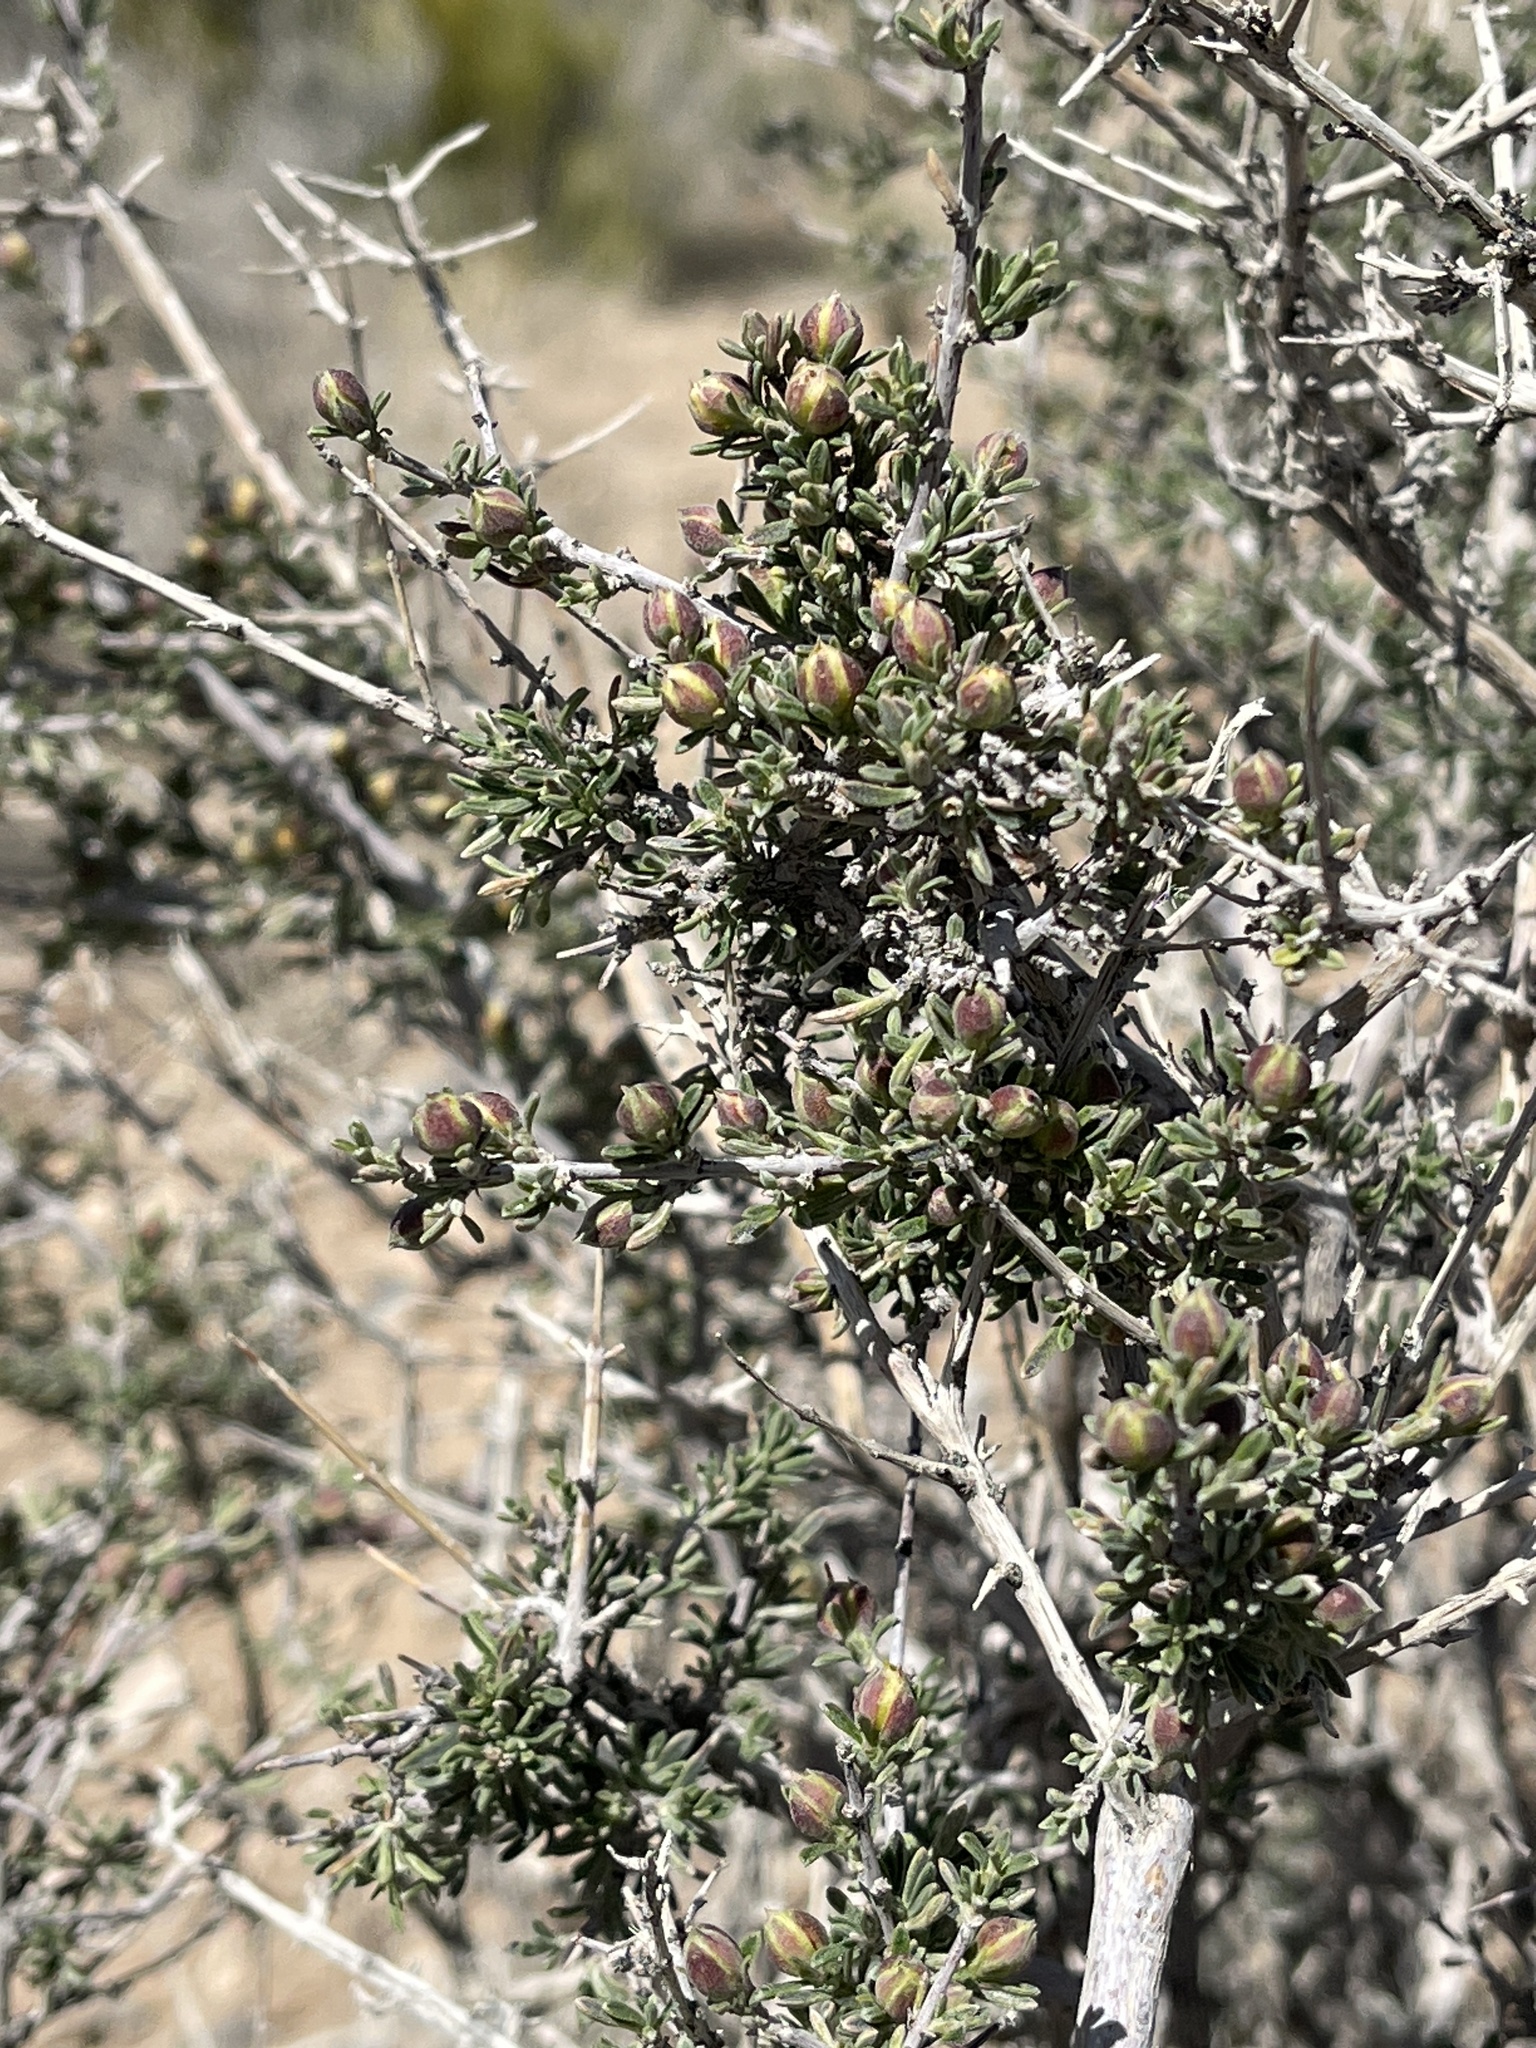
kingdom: Plantae
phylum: Tracheophyta
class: Magnoliopsida
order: Rosales
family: Rosaceae
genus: Coleogyne
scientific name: Coleogyne ramosissima
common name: Blackbrush
